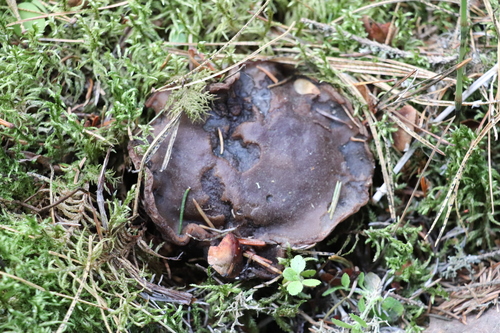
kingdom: Fungi
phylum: Ascomycota
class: Pezizomycetes
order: Pezizales
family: Sarcosomataceae
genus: Sarcosoma
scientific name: Sarcosoma globosum
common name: Charred-pancake cup
